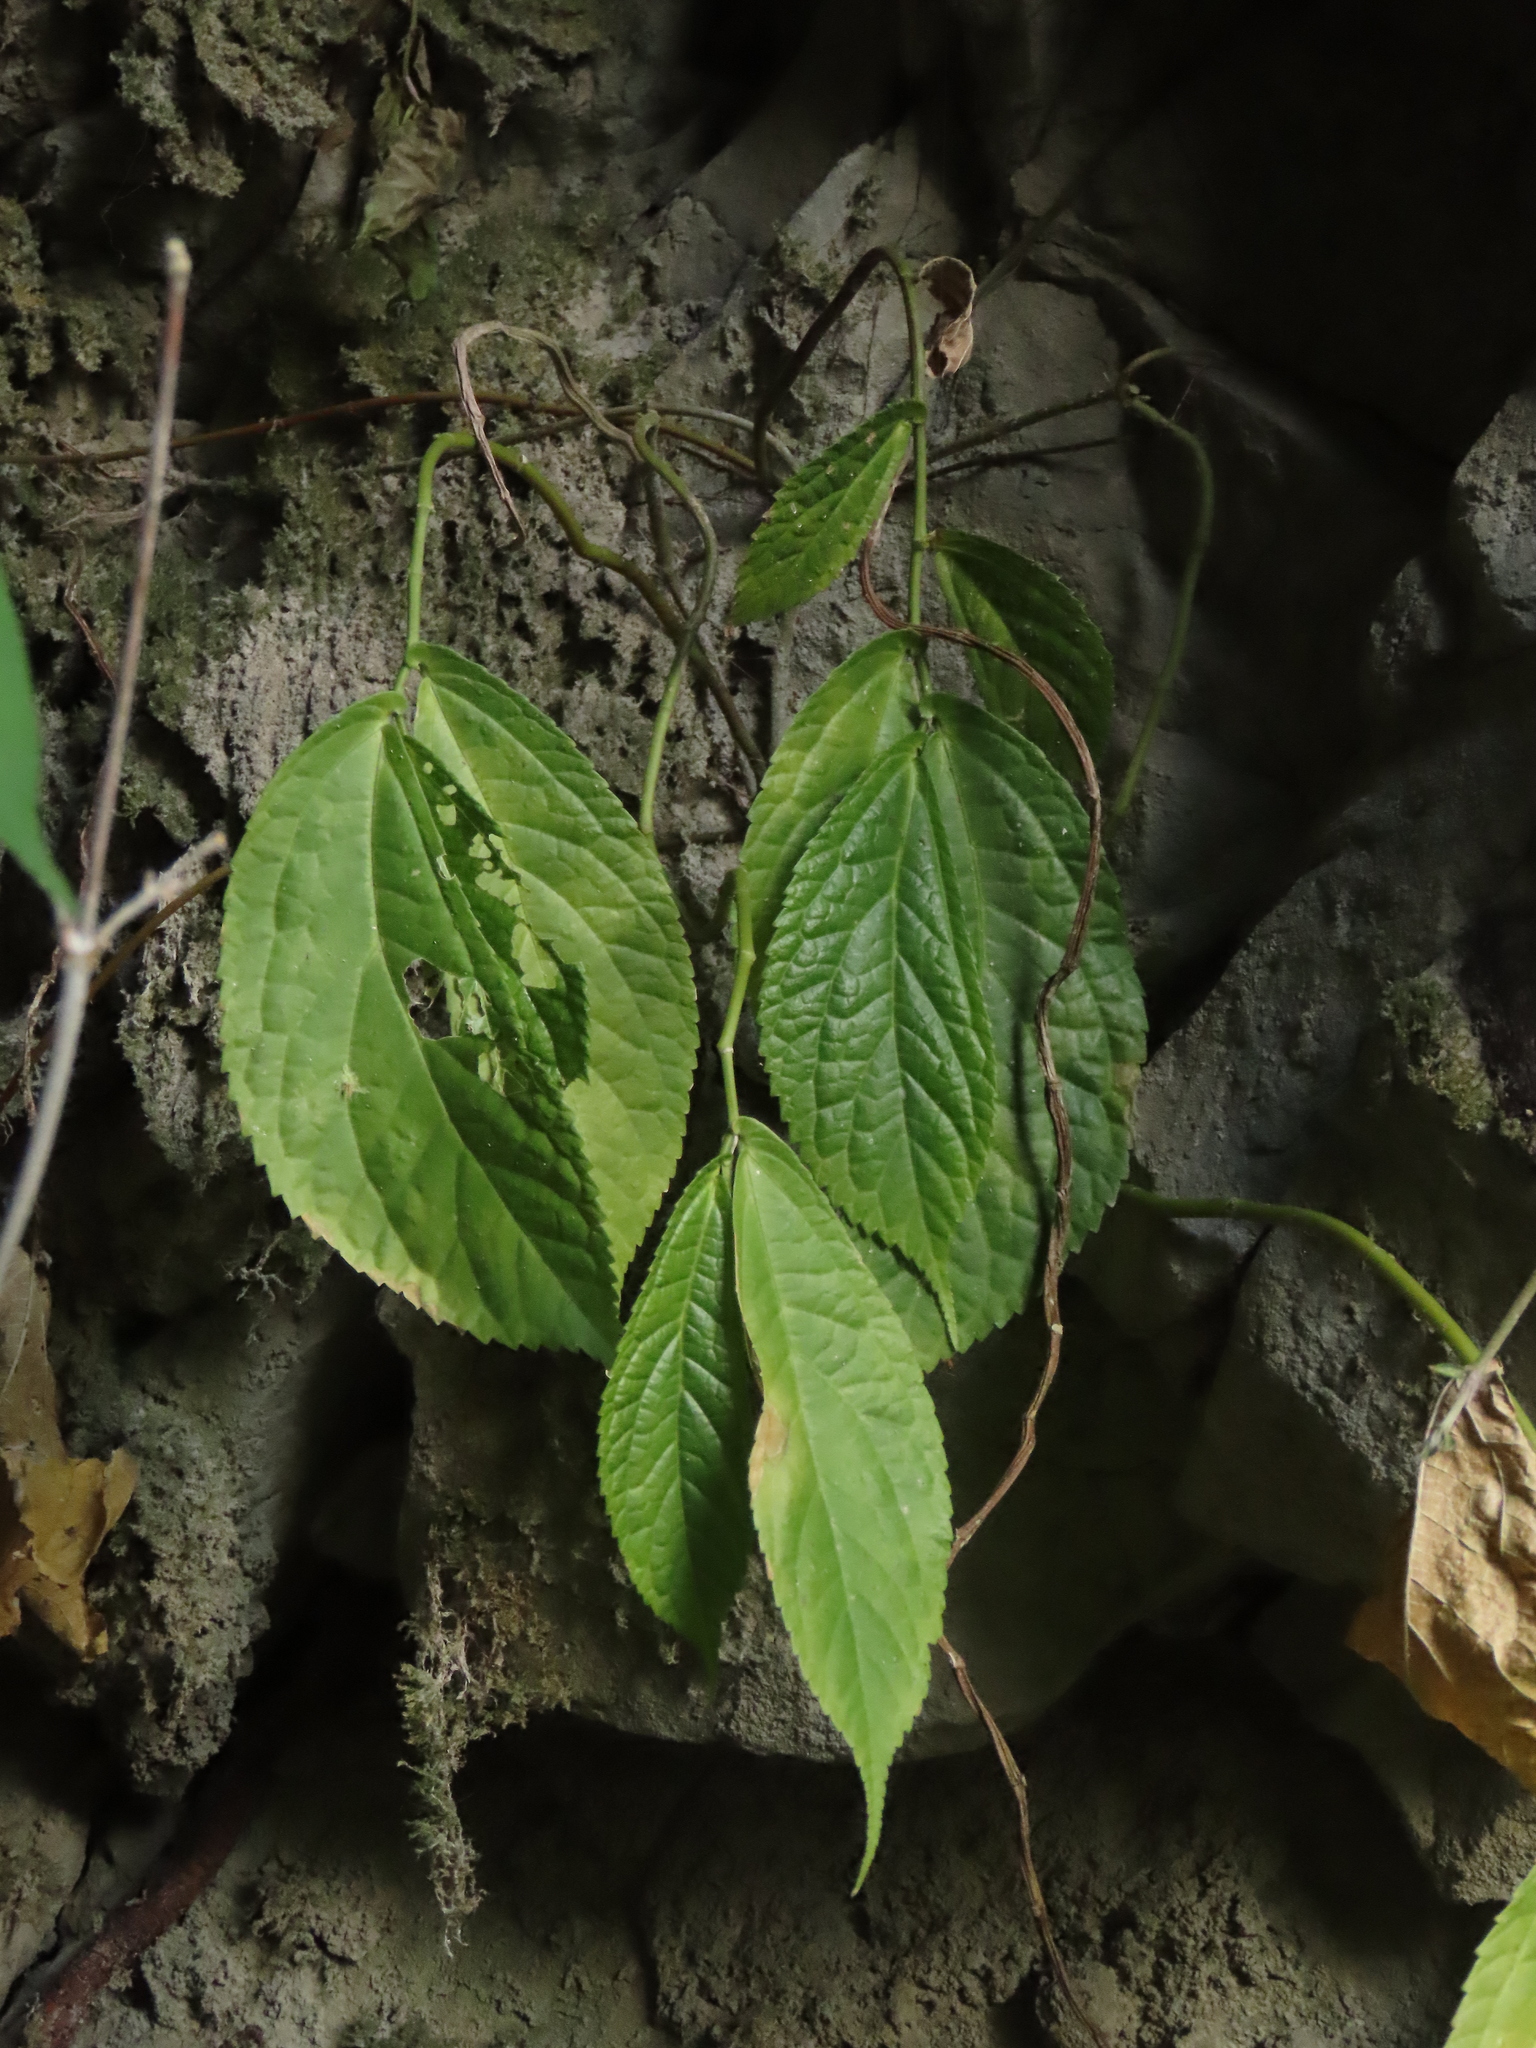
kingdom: Plantae
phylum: Tracheophyta
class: Magnoliopsida
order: Rosales
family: Urticaceae
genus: Elatostema
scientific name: Elatostema platyphyllum
